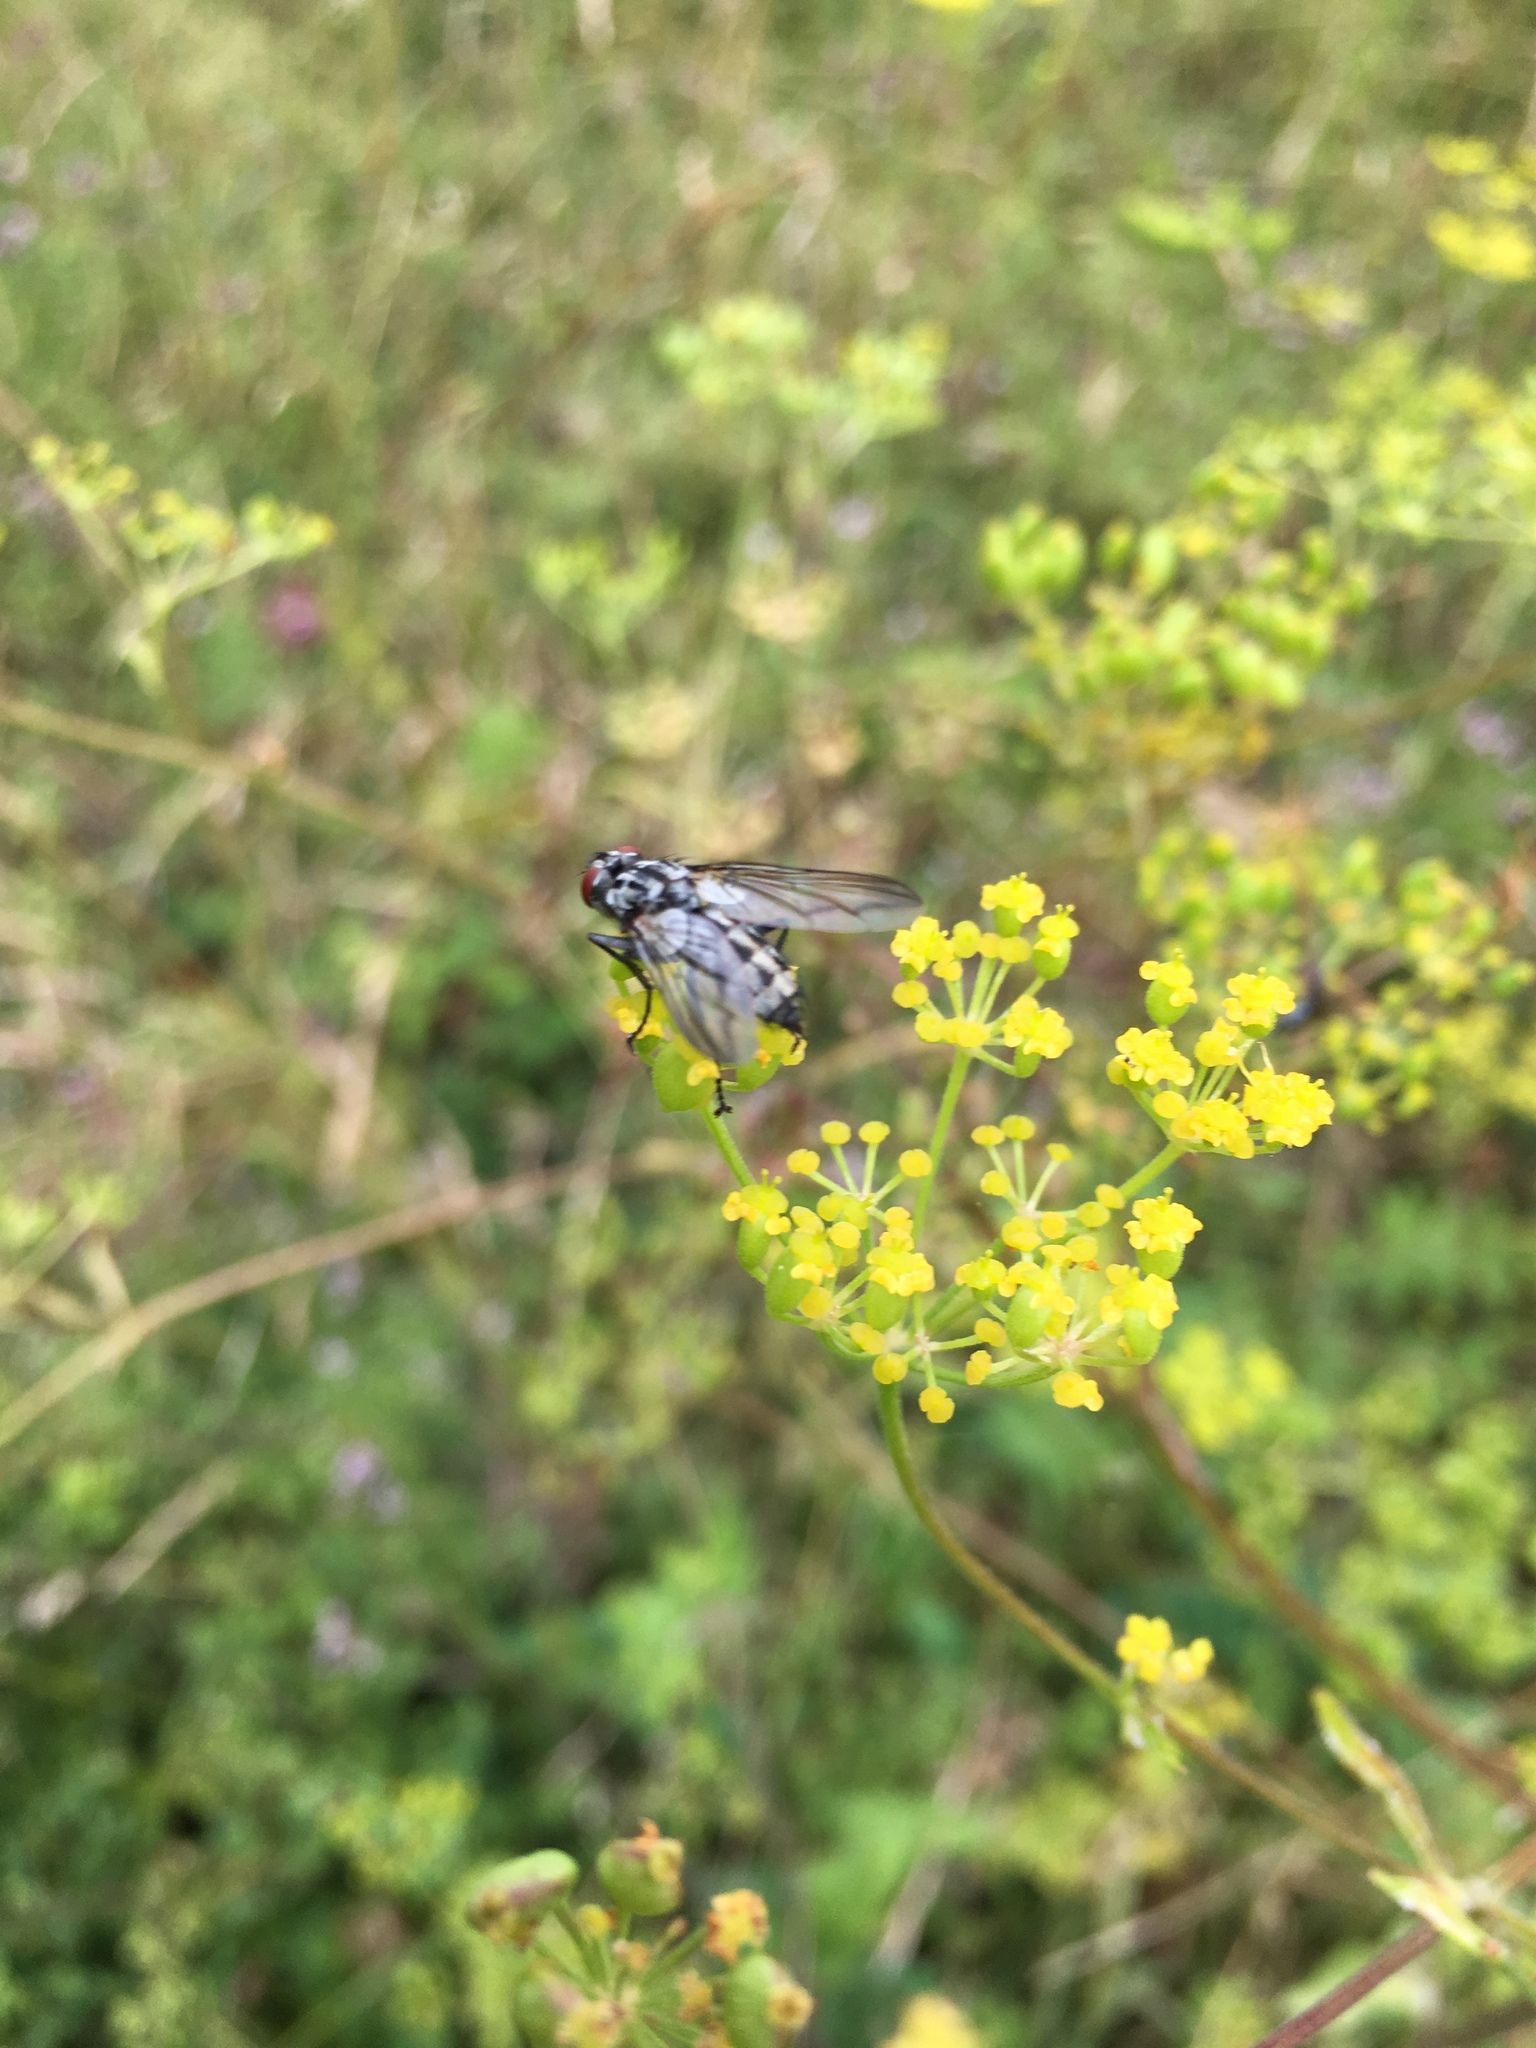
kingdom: Animalia
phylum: Arthropoda
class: Insecta
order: Diptera
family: Sarcophagidae
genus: Macronychia
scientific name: Macronychia dolini
